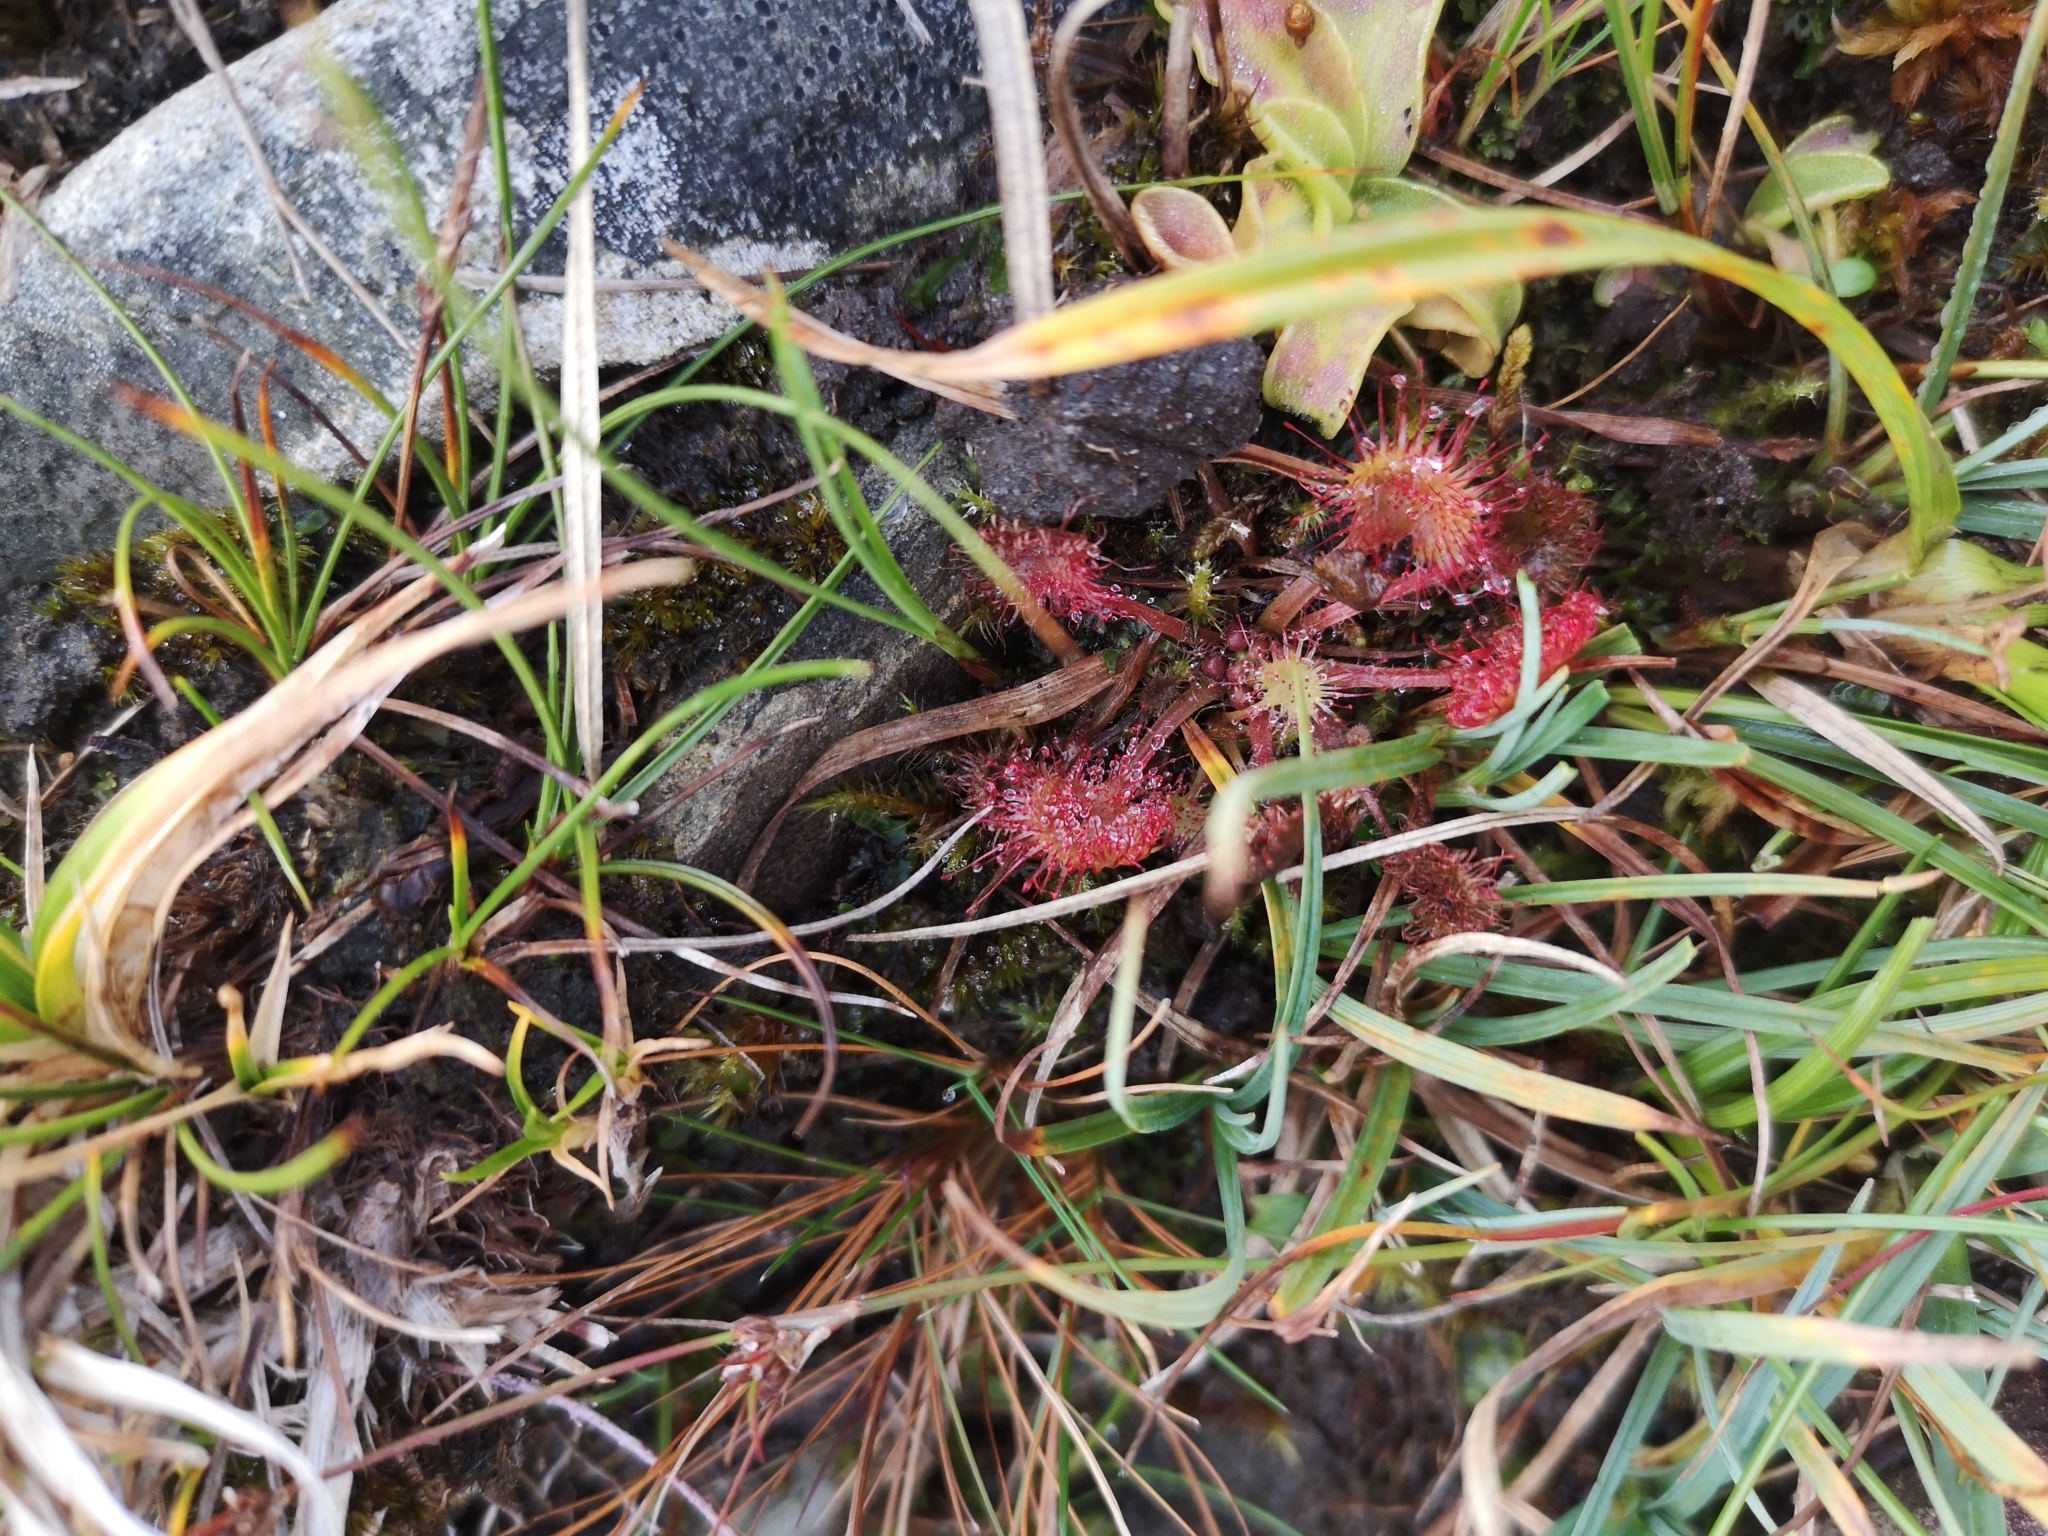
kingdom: Plantae
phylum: Tracheophyta
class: Magnoliopsida
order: Caryophyllales
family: Droseraceae
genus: Drosera
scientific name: Drosera rotundifolia
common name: Round-leaved sundew
